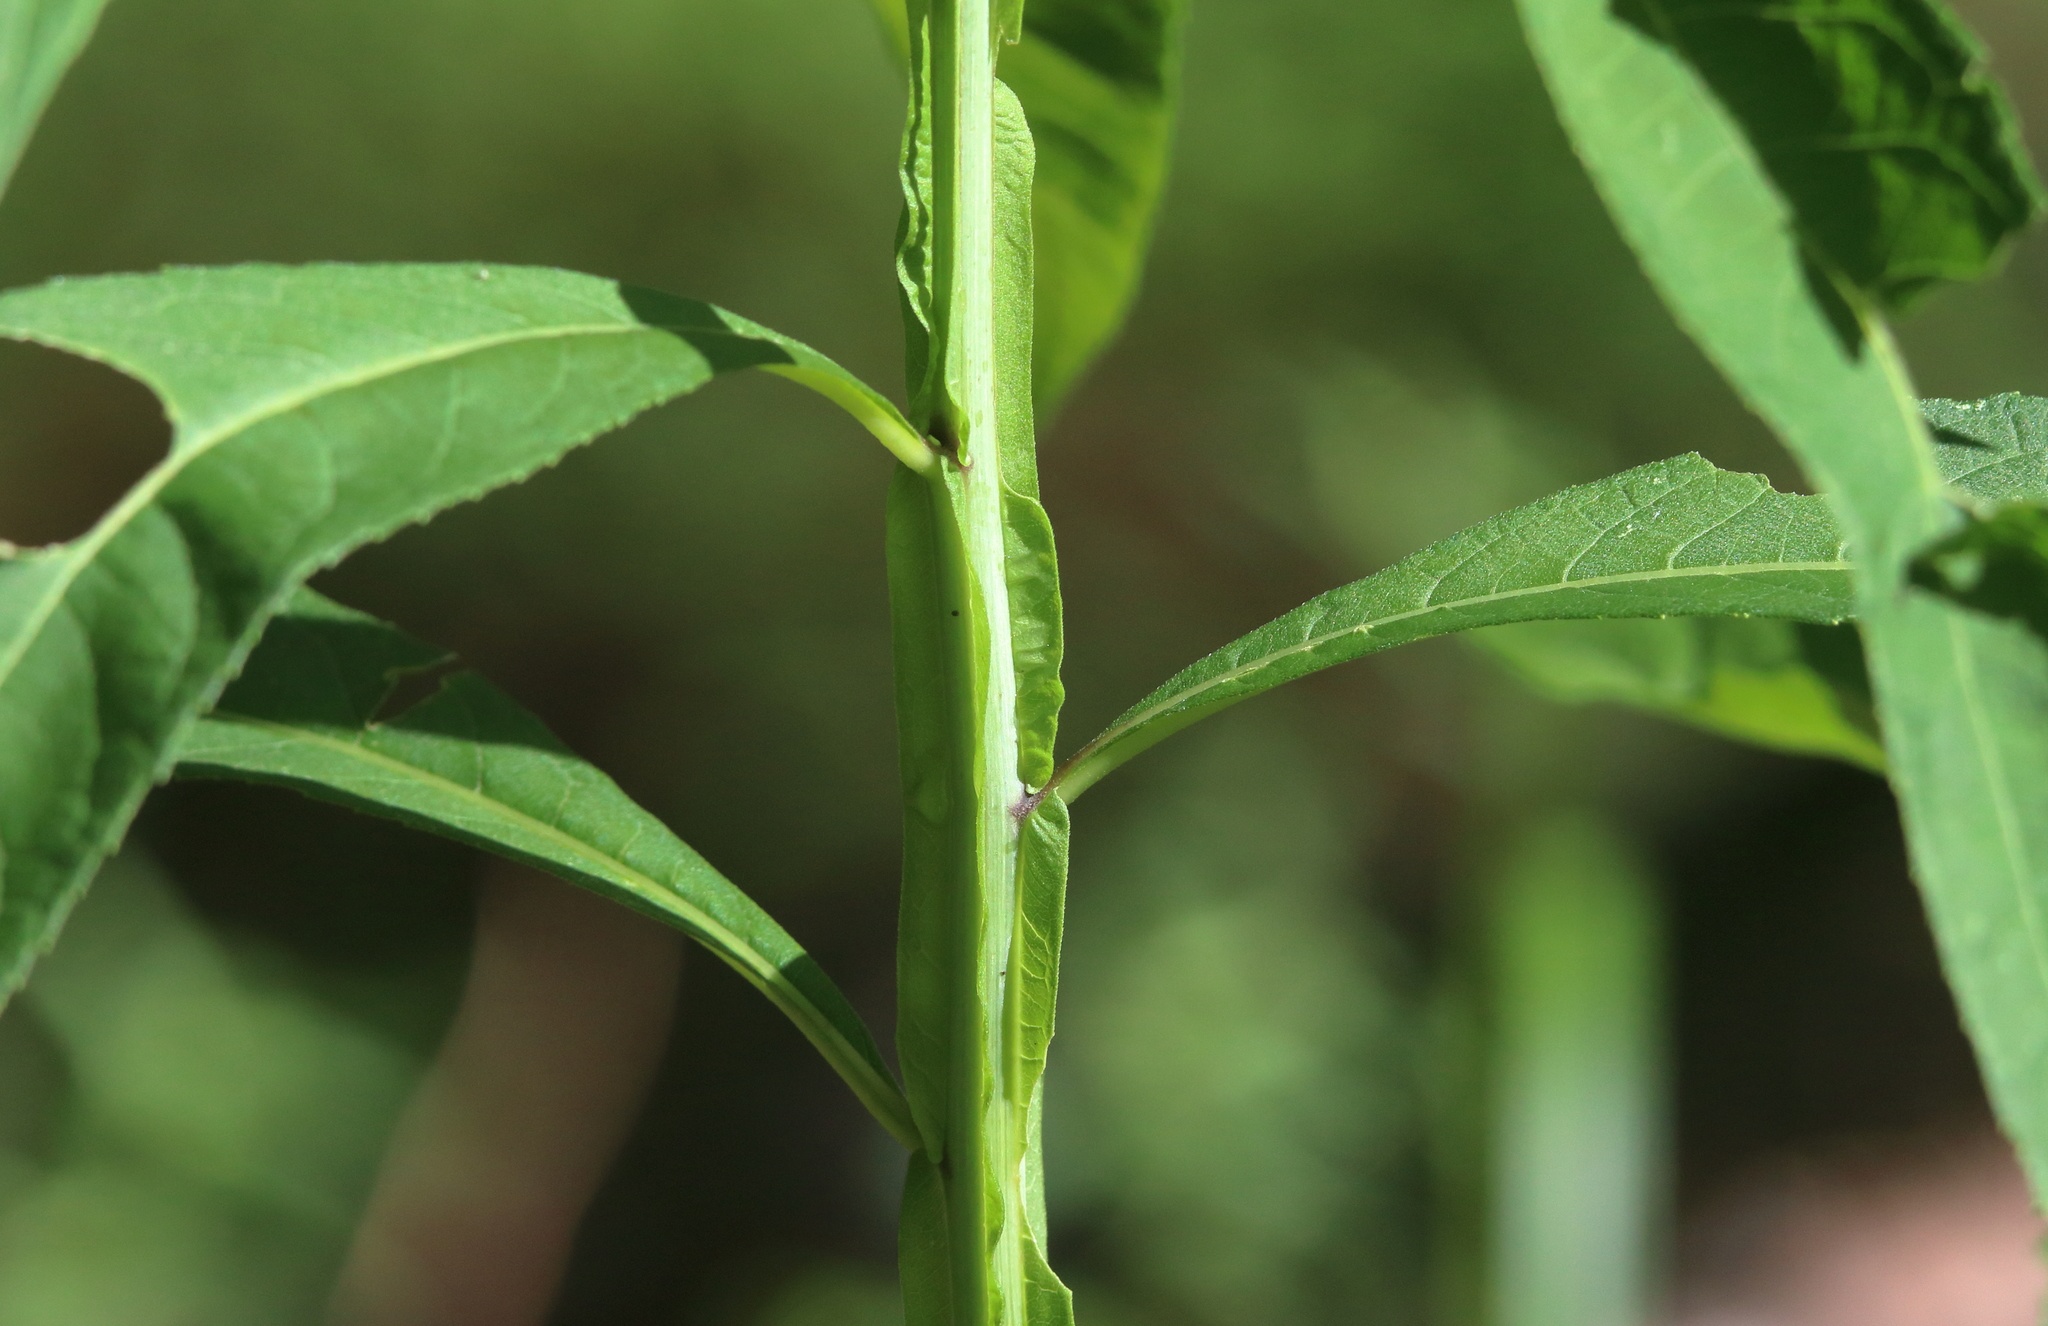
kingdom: Plantae
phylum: Tracheophyta
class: Magnoliopsida
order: Asterales
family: Asteraceae
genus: Verbesina
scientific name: Verbesina alternifolia
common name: Wingstem
